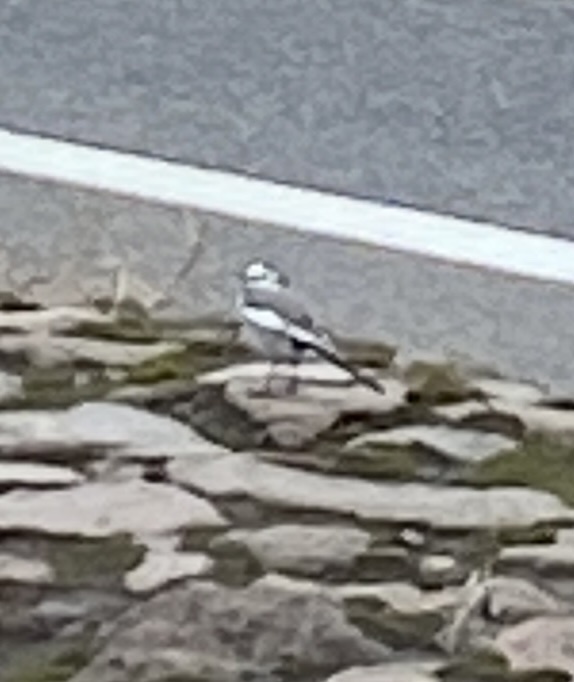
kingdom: Animalia
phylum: Chordata
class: Aves
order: Passeriformes
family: Motacillidae
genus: Motacilla
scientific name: Motacilla alba
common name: White wagtail
